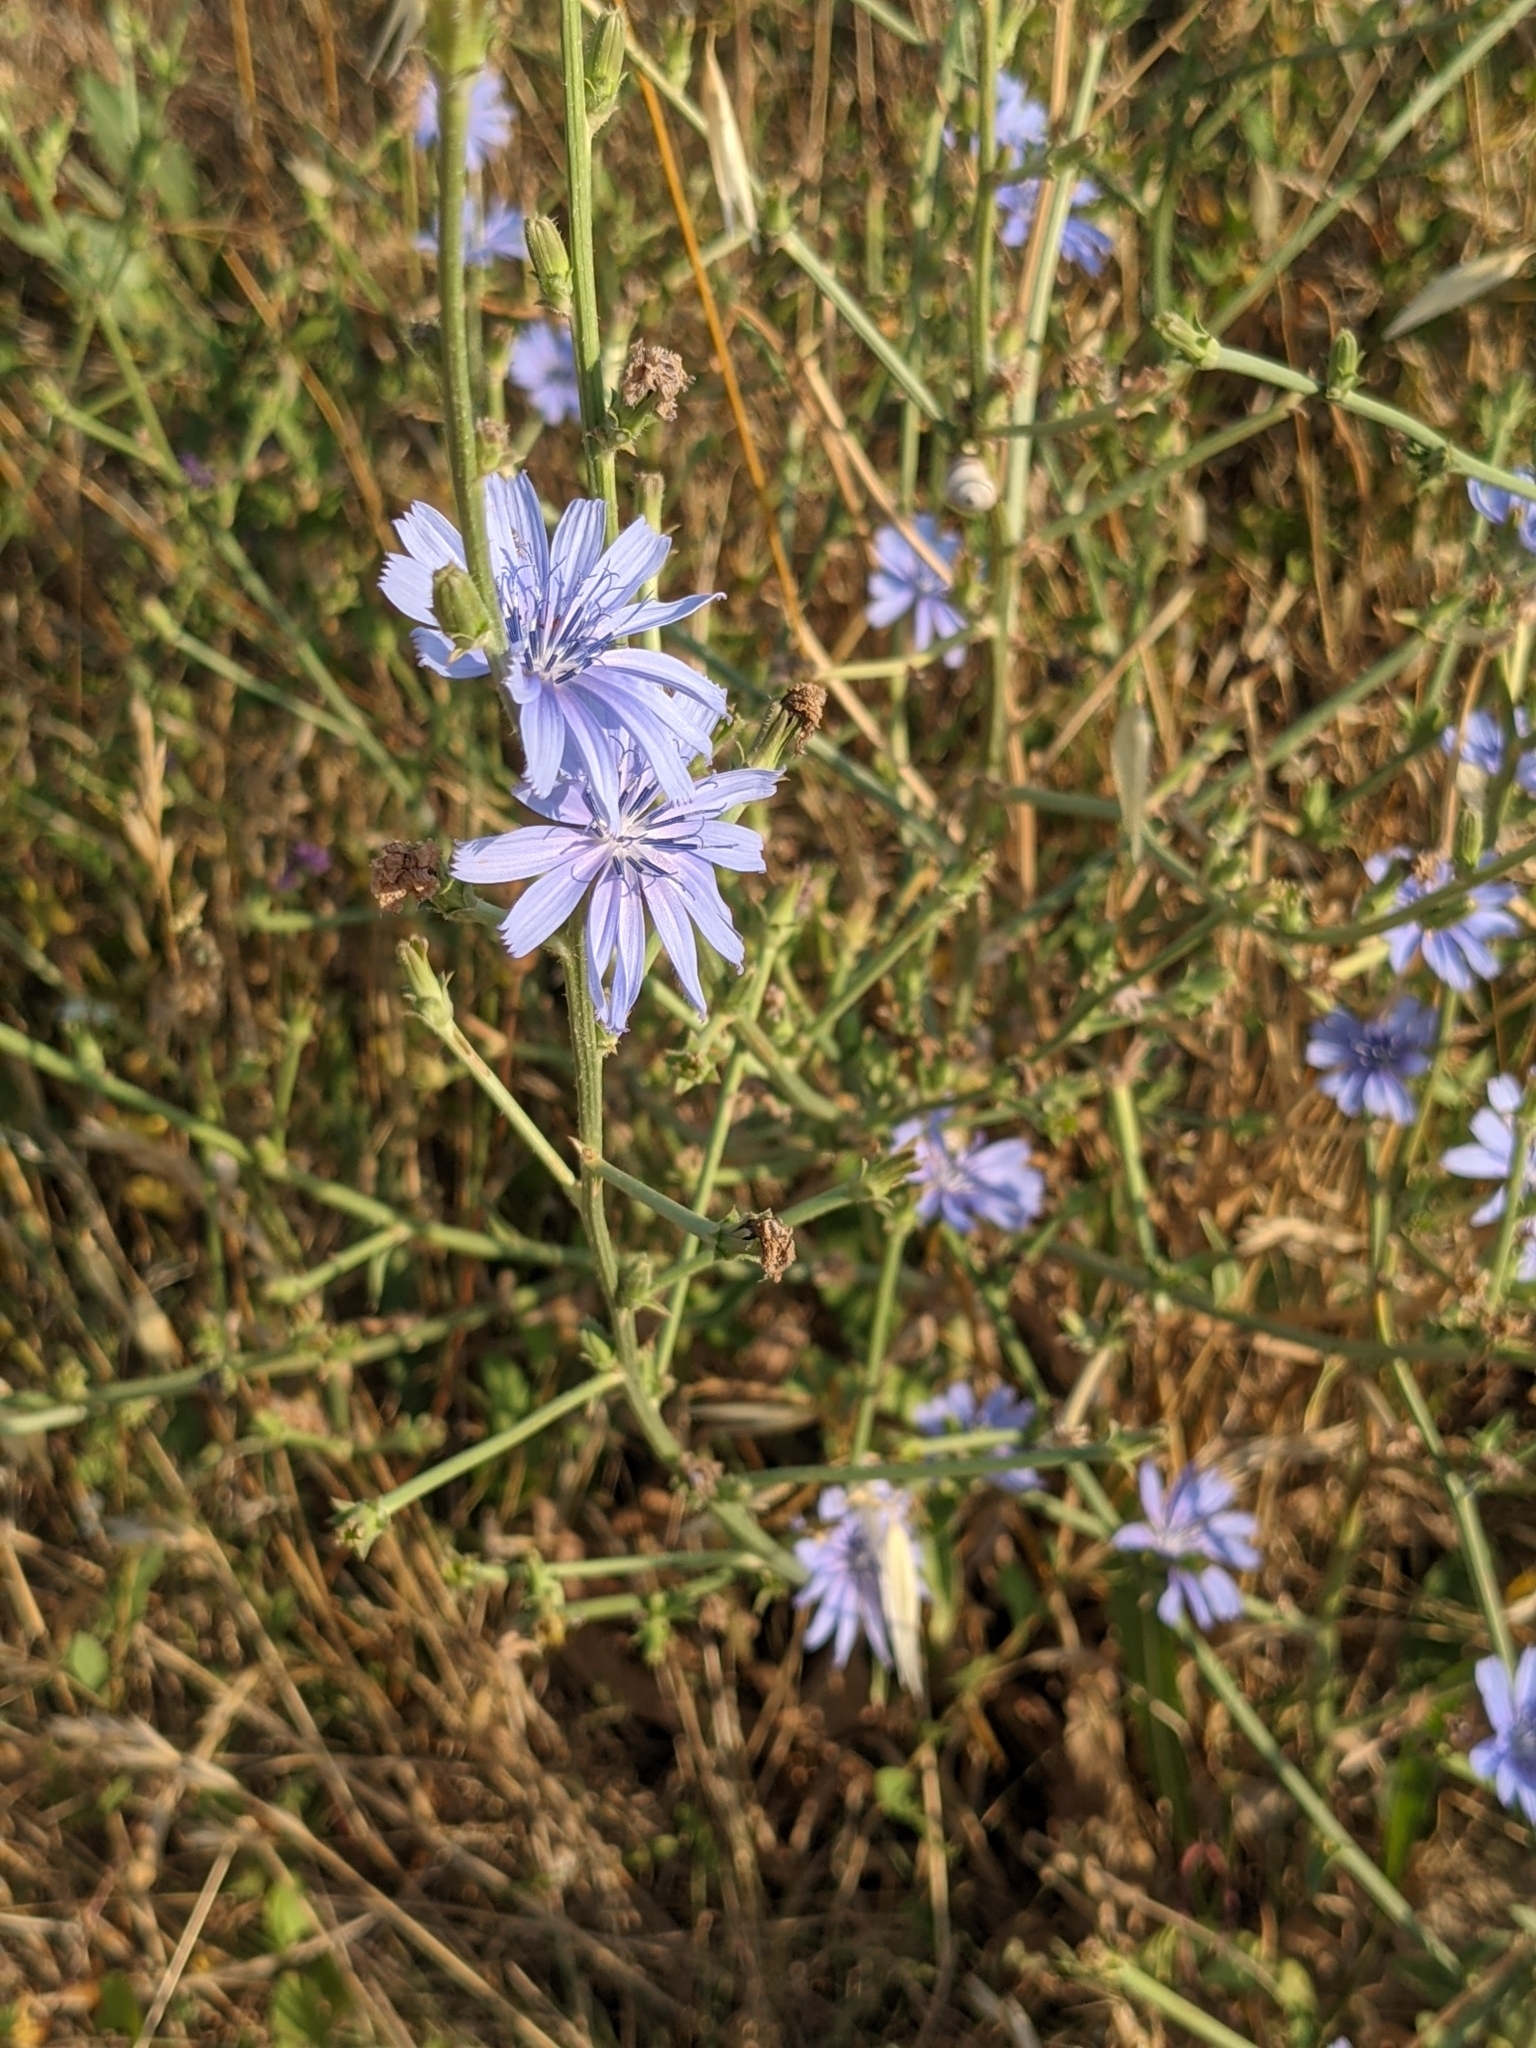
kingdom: Plantae
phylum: Tracheophyta
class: Magnoliopsida
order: Asterales
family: Asteraceae
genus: Cichorium
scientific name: Cichorium intybus
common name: Chicory
